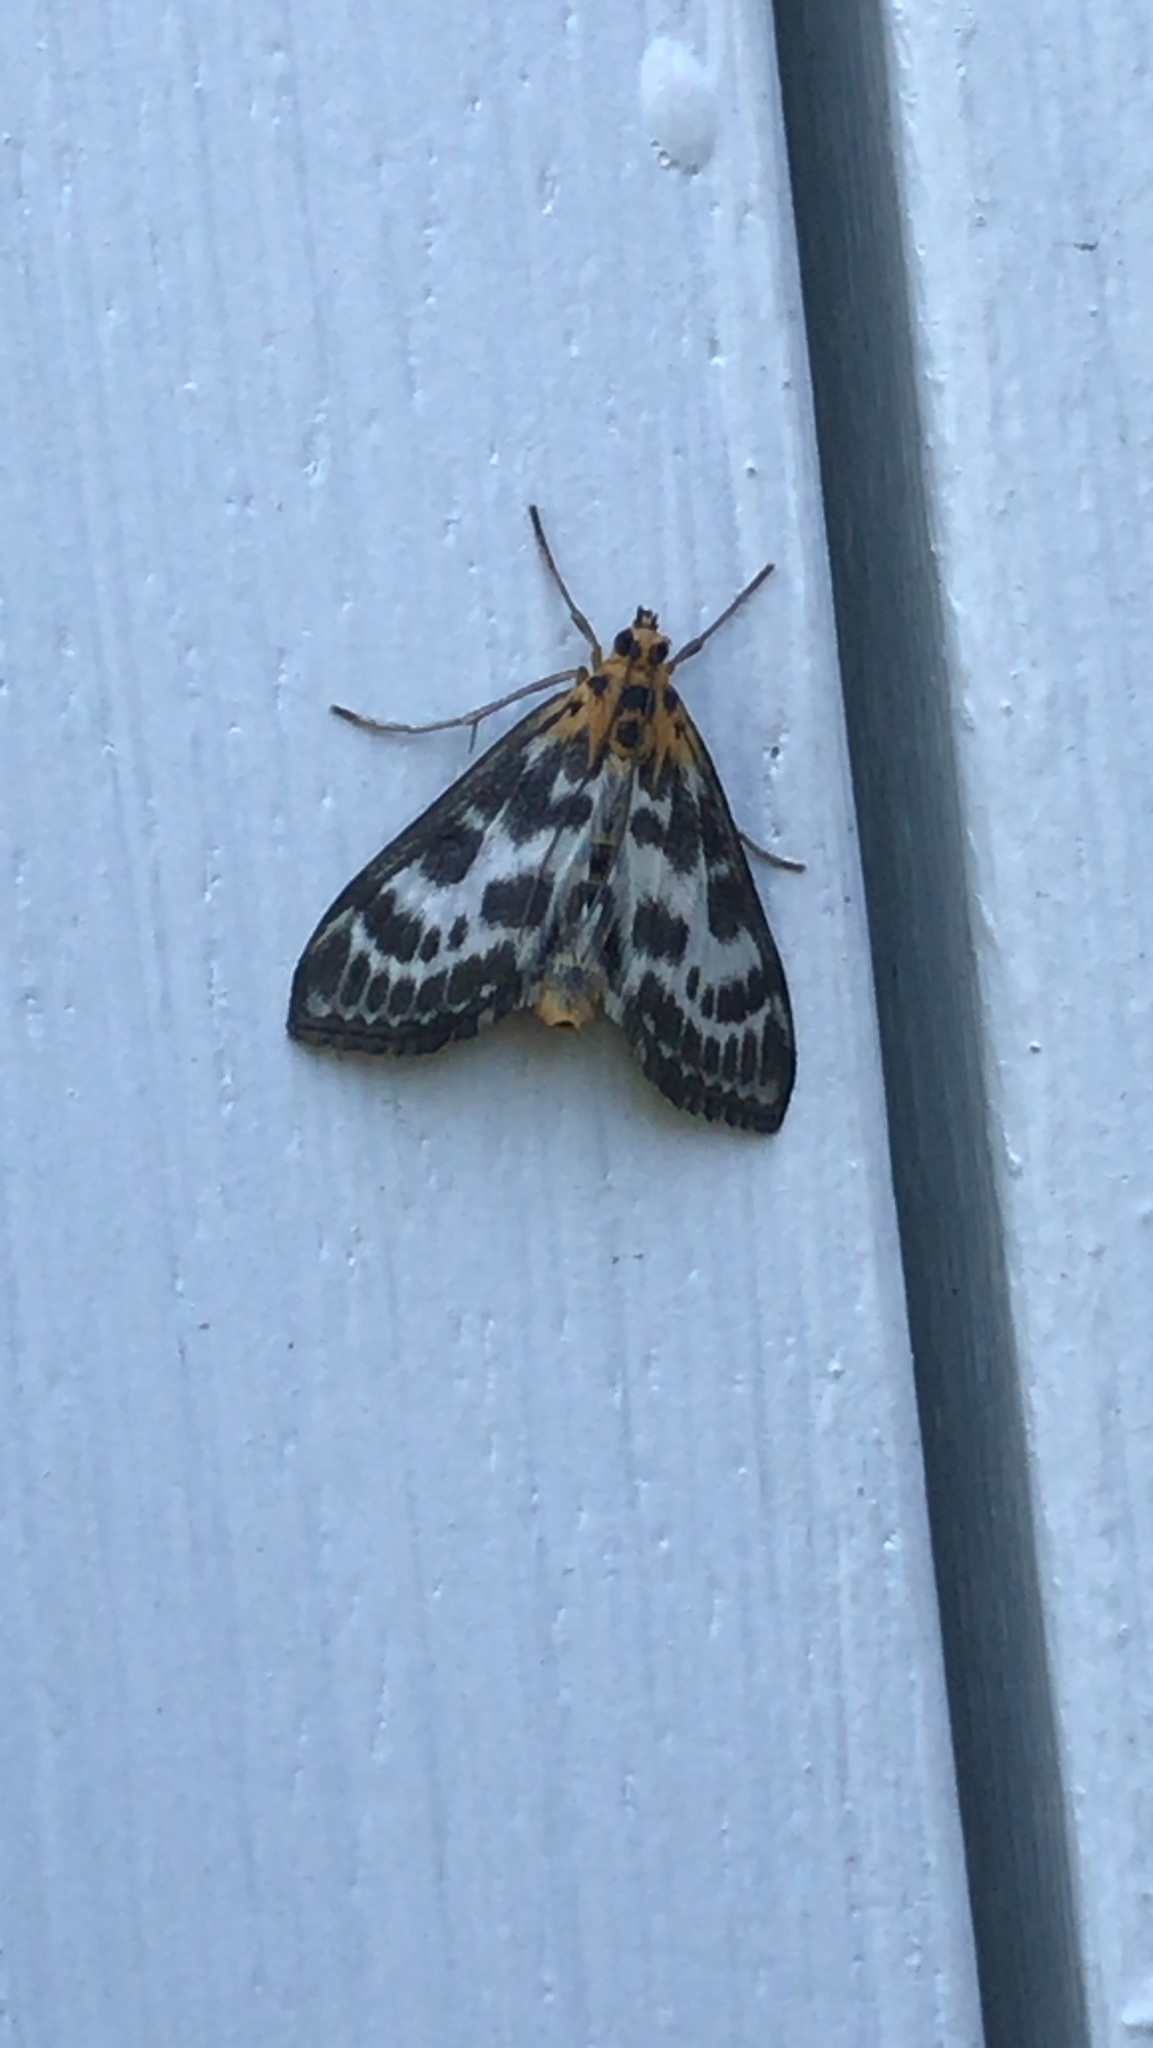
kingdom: Animalia
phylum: Arthropoda
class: Insecta
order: Lepidoptera
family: Crambidae
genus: Anania
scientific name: Anania hortulata
